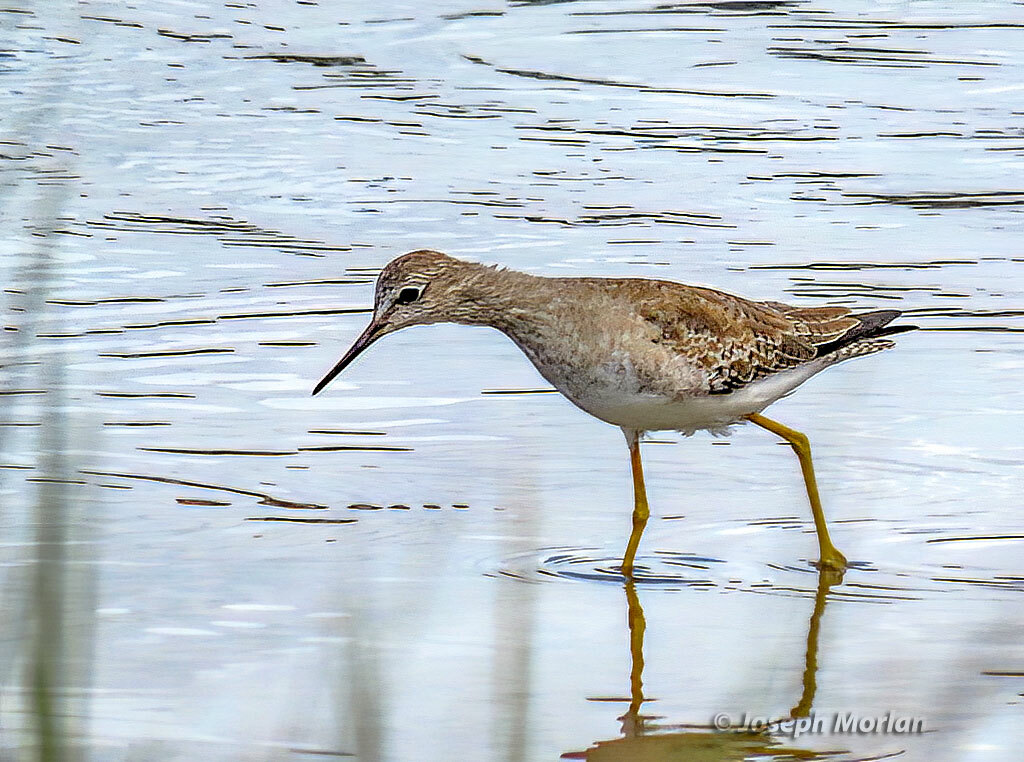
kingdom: Animalia
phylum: Chordata
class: Aves
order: Charadriiformes
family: Scolopacidae
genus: Tringa
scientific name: Tringa flavipes
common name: Lesser yellowlegs
